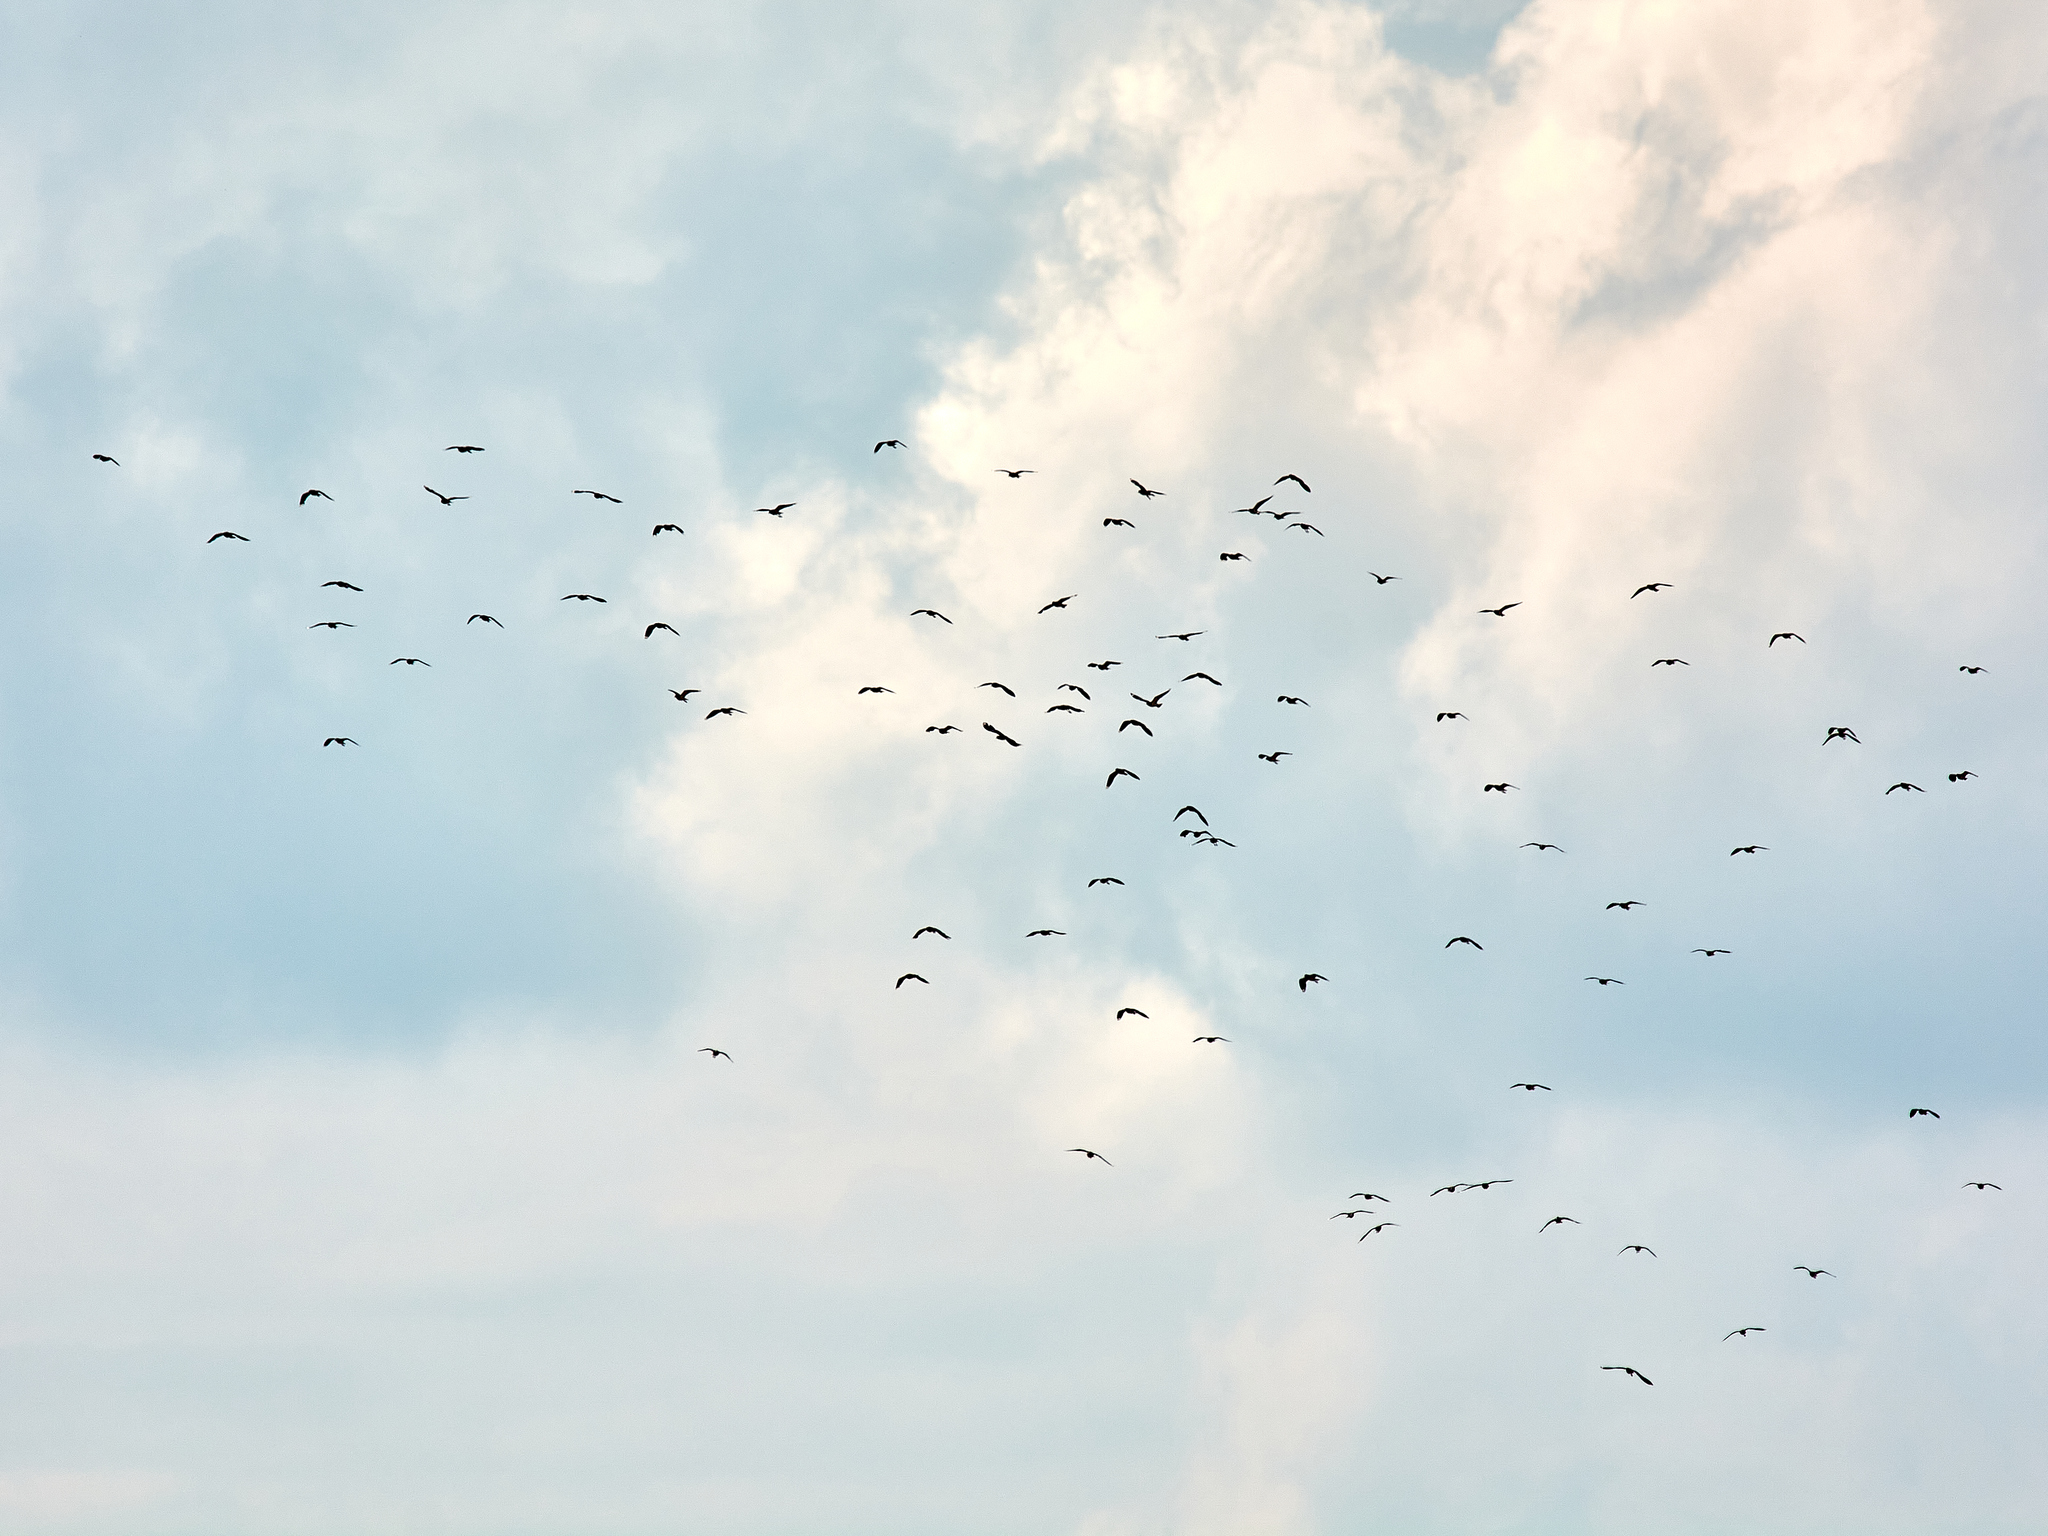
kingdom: Animalia
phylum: Chordata
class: Aves
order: Charadriiformes
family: Charadriidae
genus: Vanellus
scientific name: Vanellus vanellus
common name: Northern lapwing
